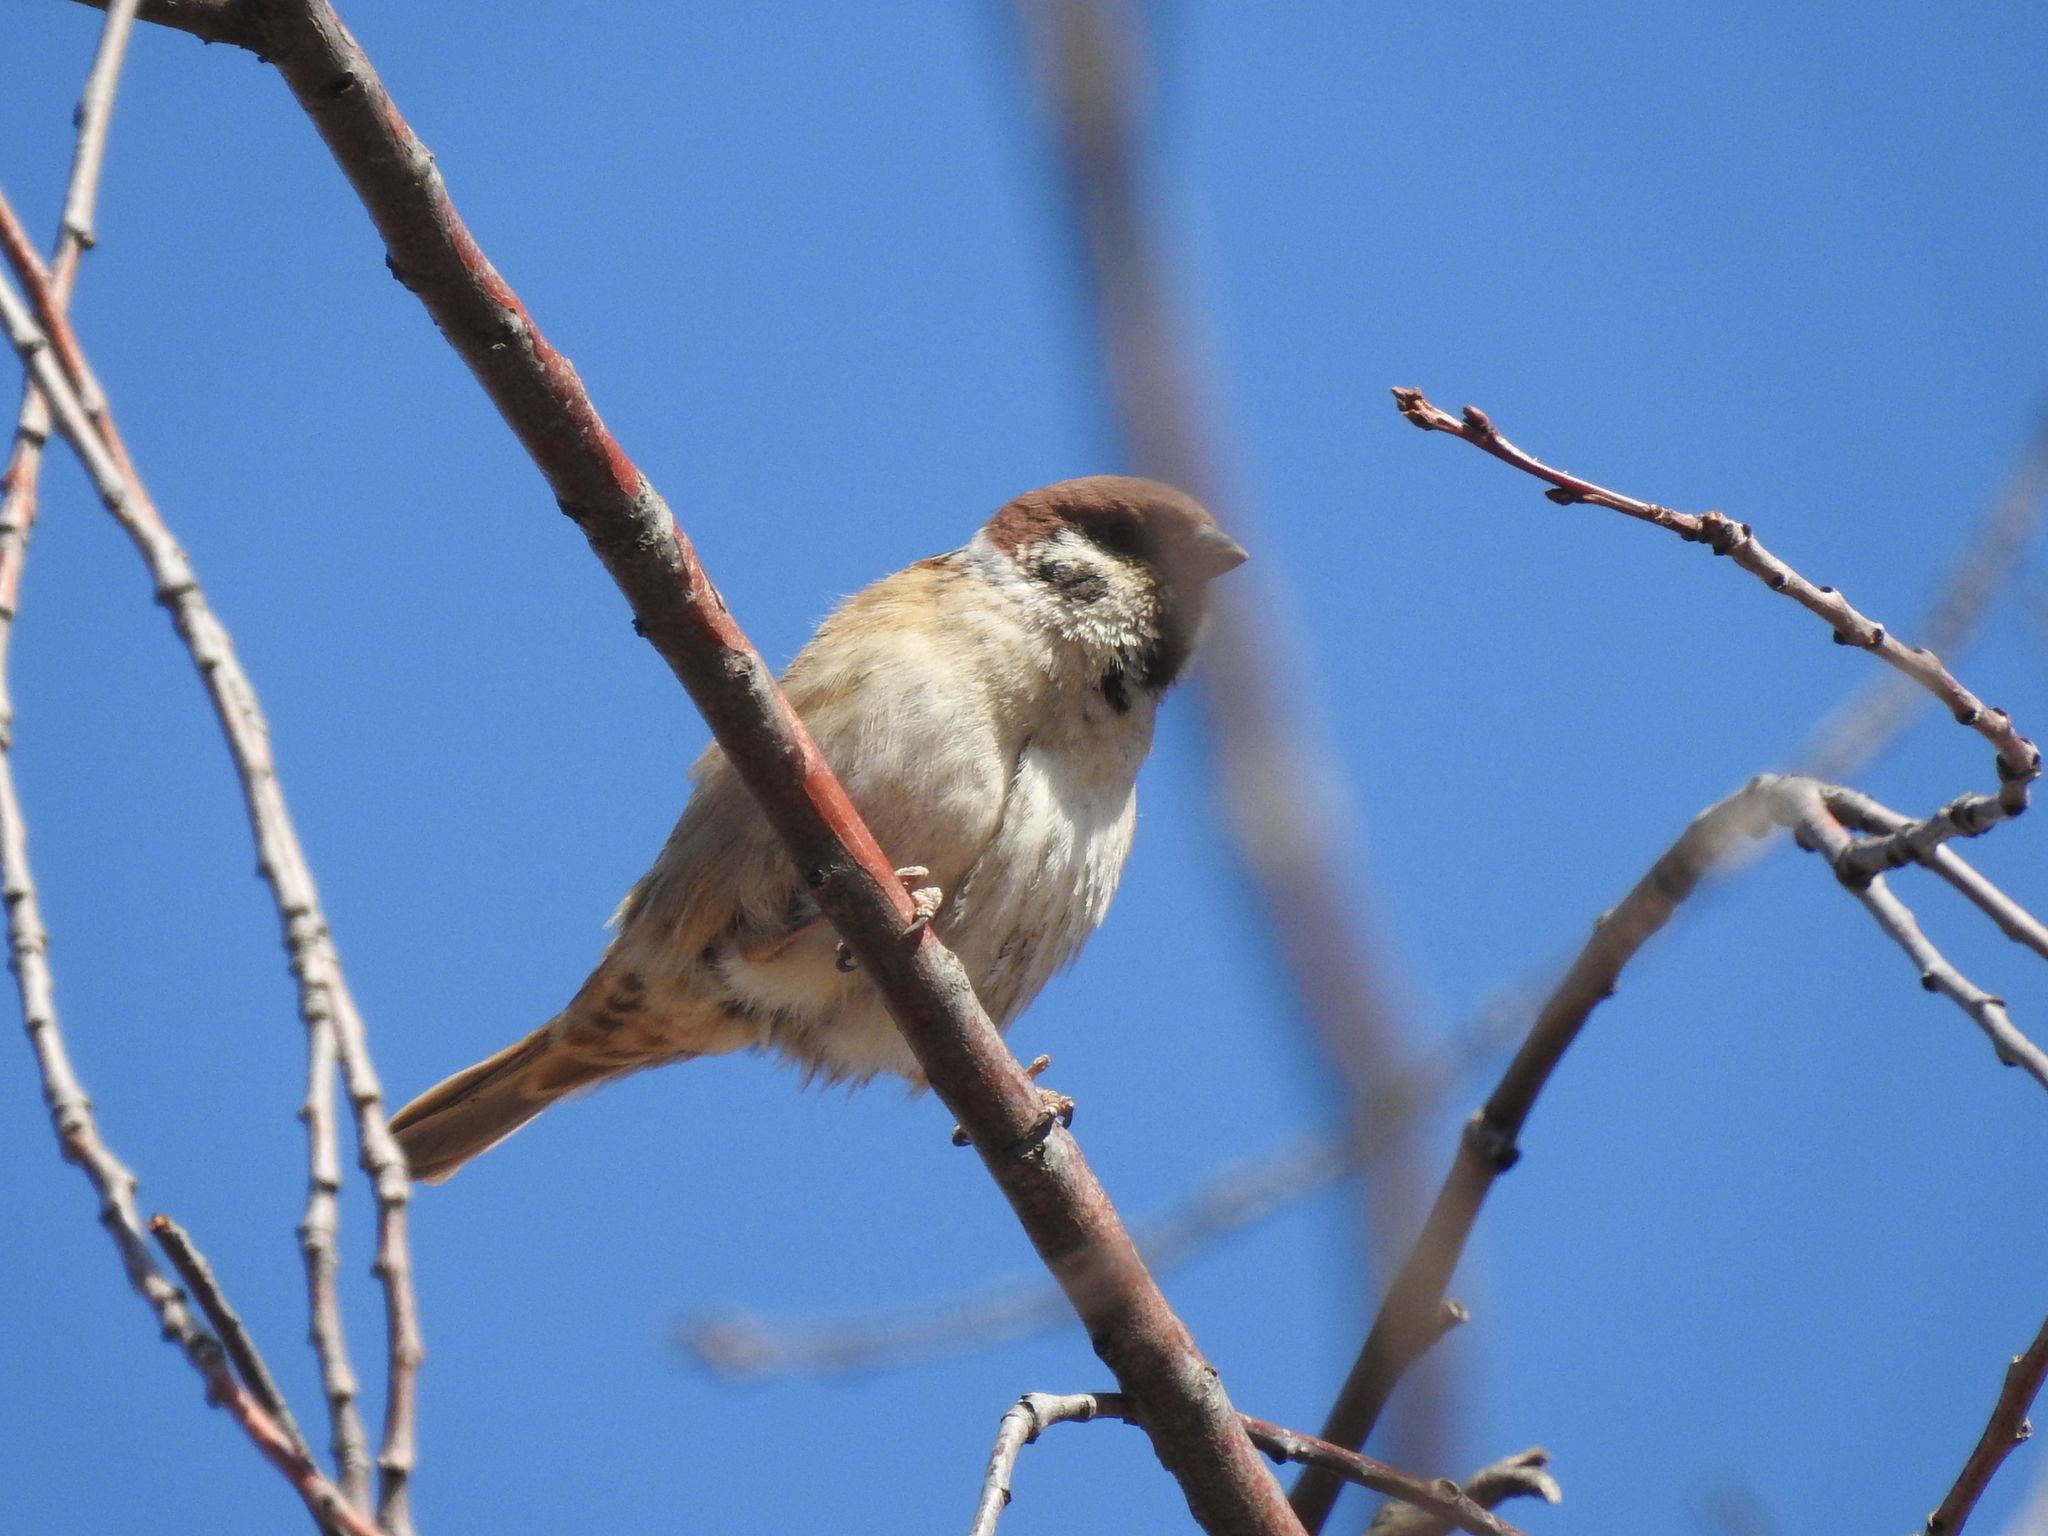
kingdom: Animalia
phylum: Chordata
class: Aves
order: Passeriformes
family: Passeridae
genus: Passer
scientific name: Passer montanus
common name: Eurasian tree sparrow
